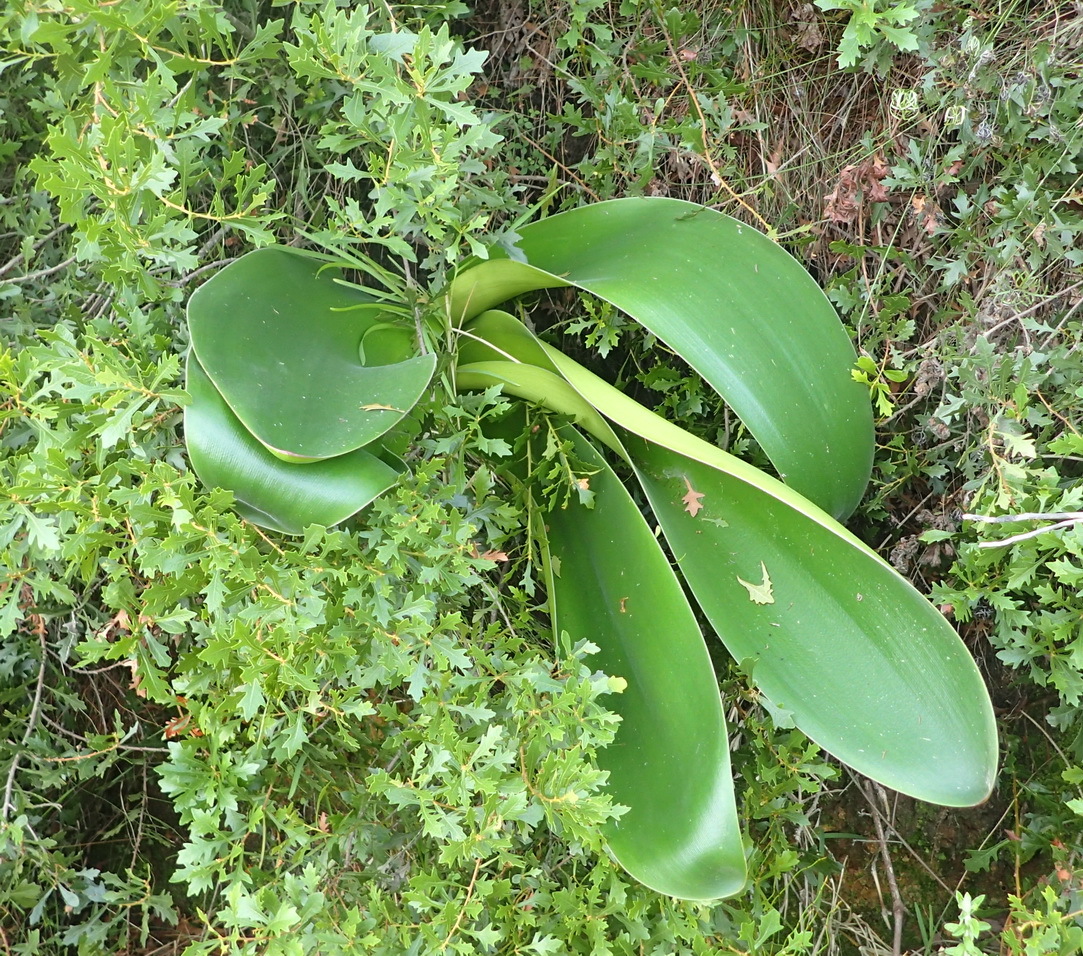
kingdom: Plantae
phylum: Tracheophyta
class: Liliopsida
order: Asparagales
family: Amaryllidaceae
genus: Brunsvigia
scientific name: Brunsvigia orientalis
